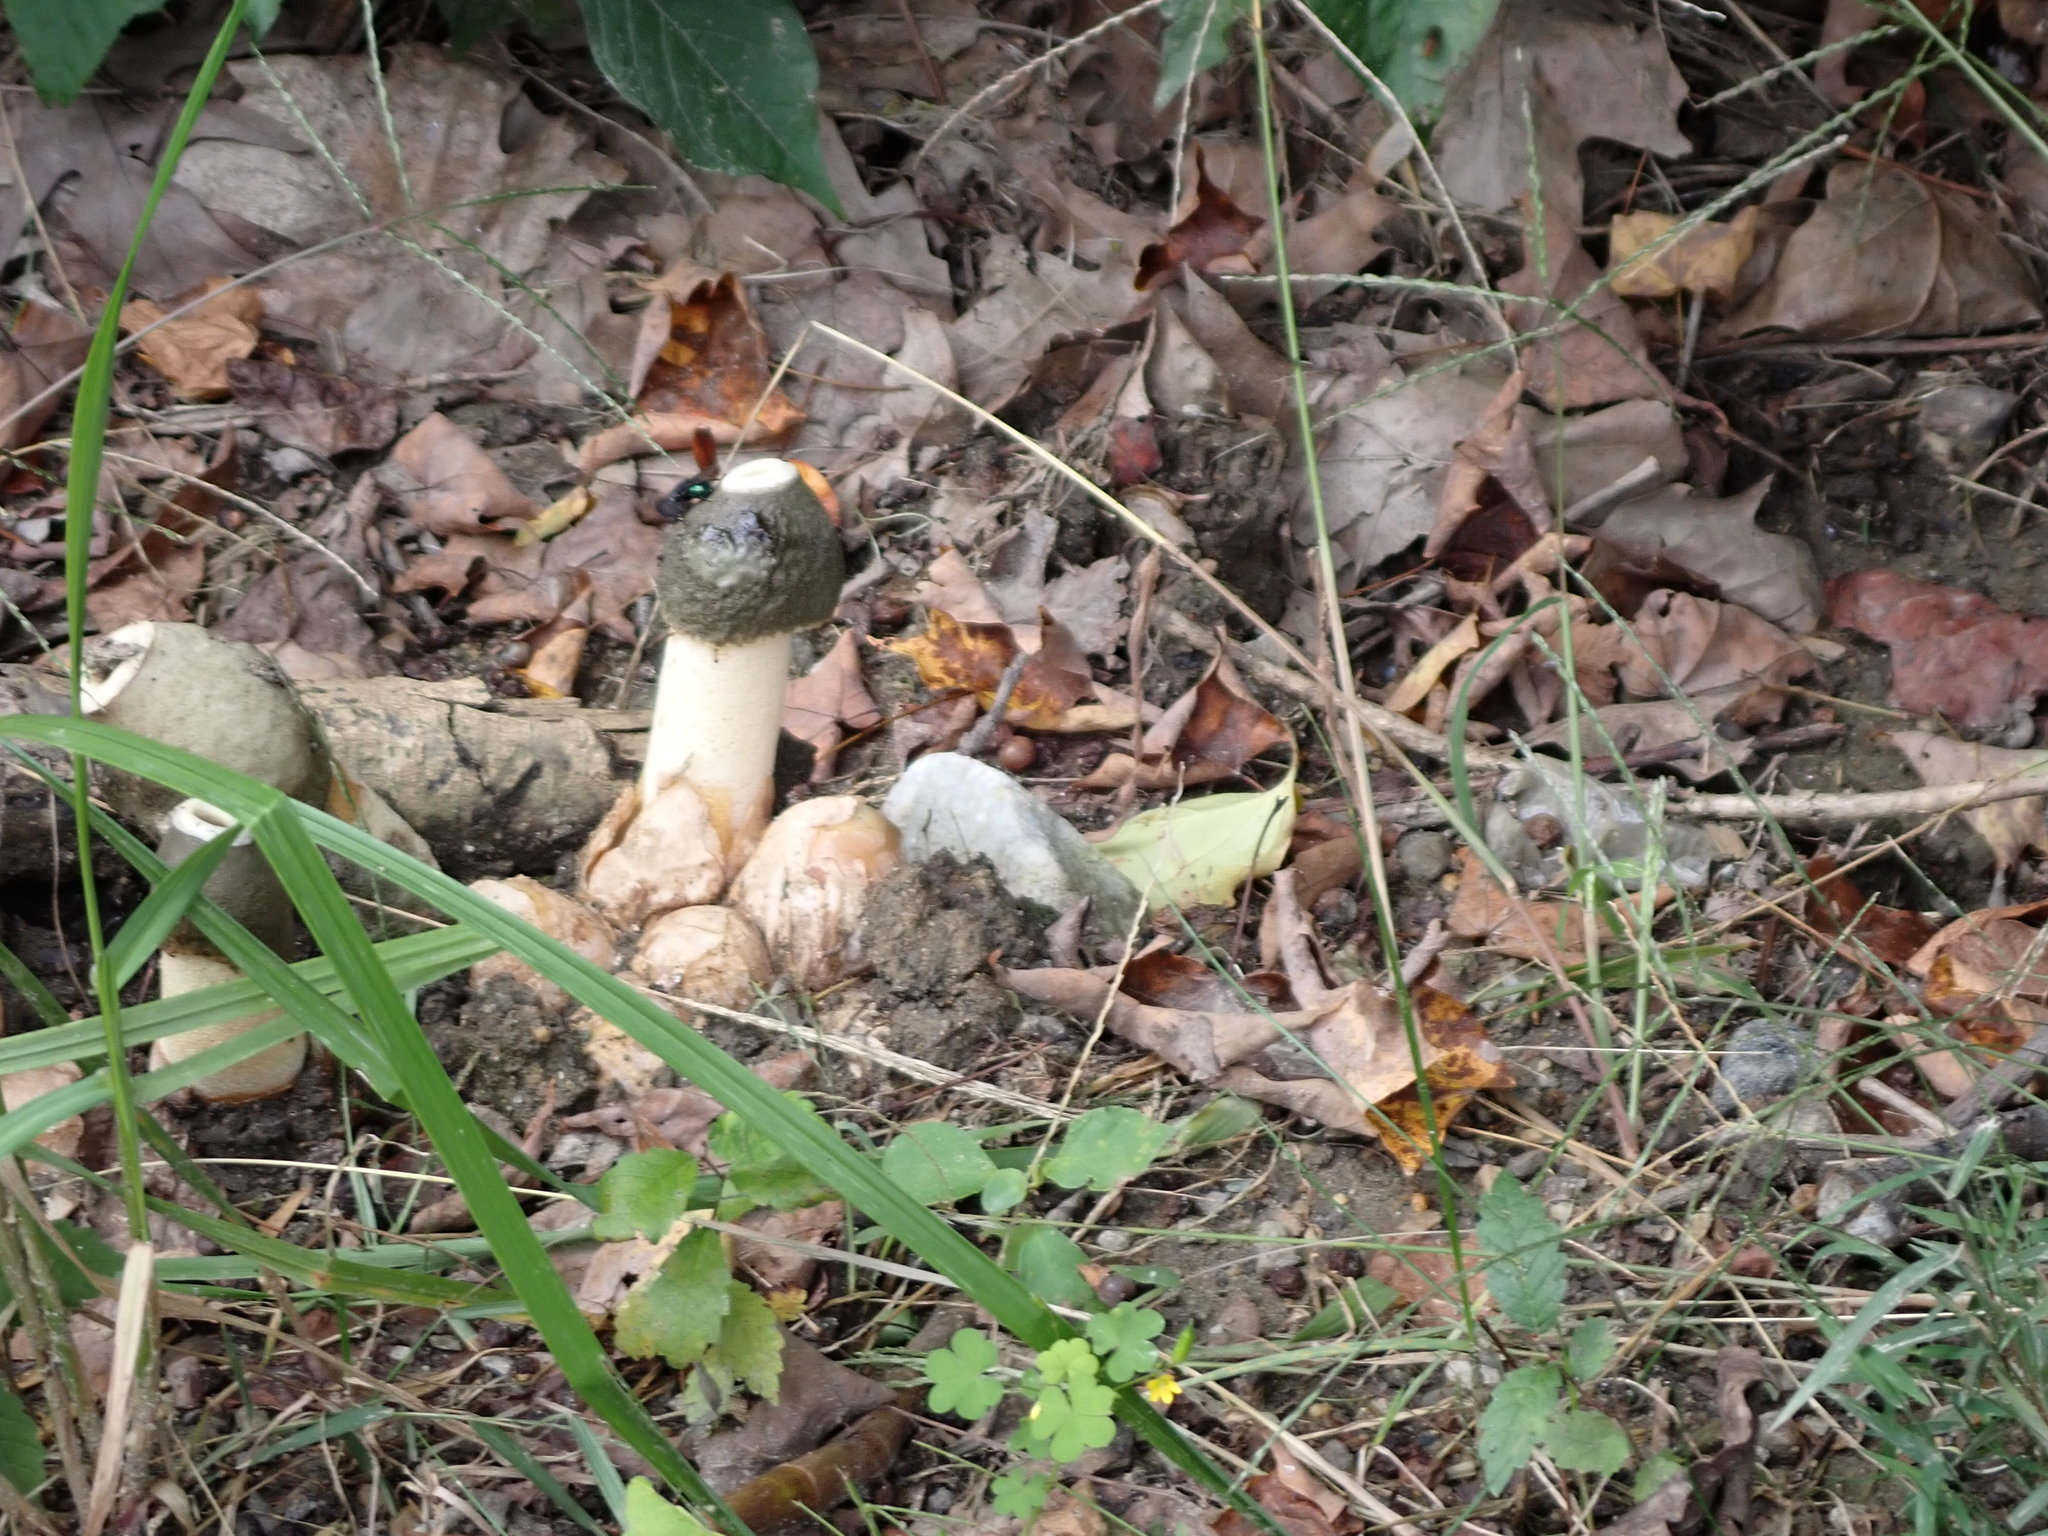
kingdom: Fungi
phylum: Basidiomycota
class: Agaricomycetes
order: Phallales
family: Phallaceae
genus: Phallus
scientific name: Phallus ravenelii
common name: Ravenel's stinkhorn
